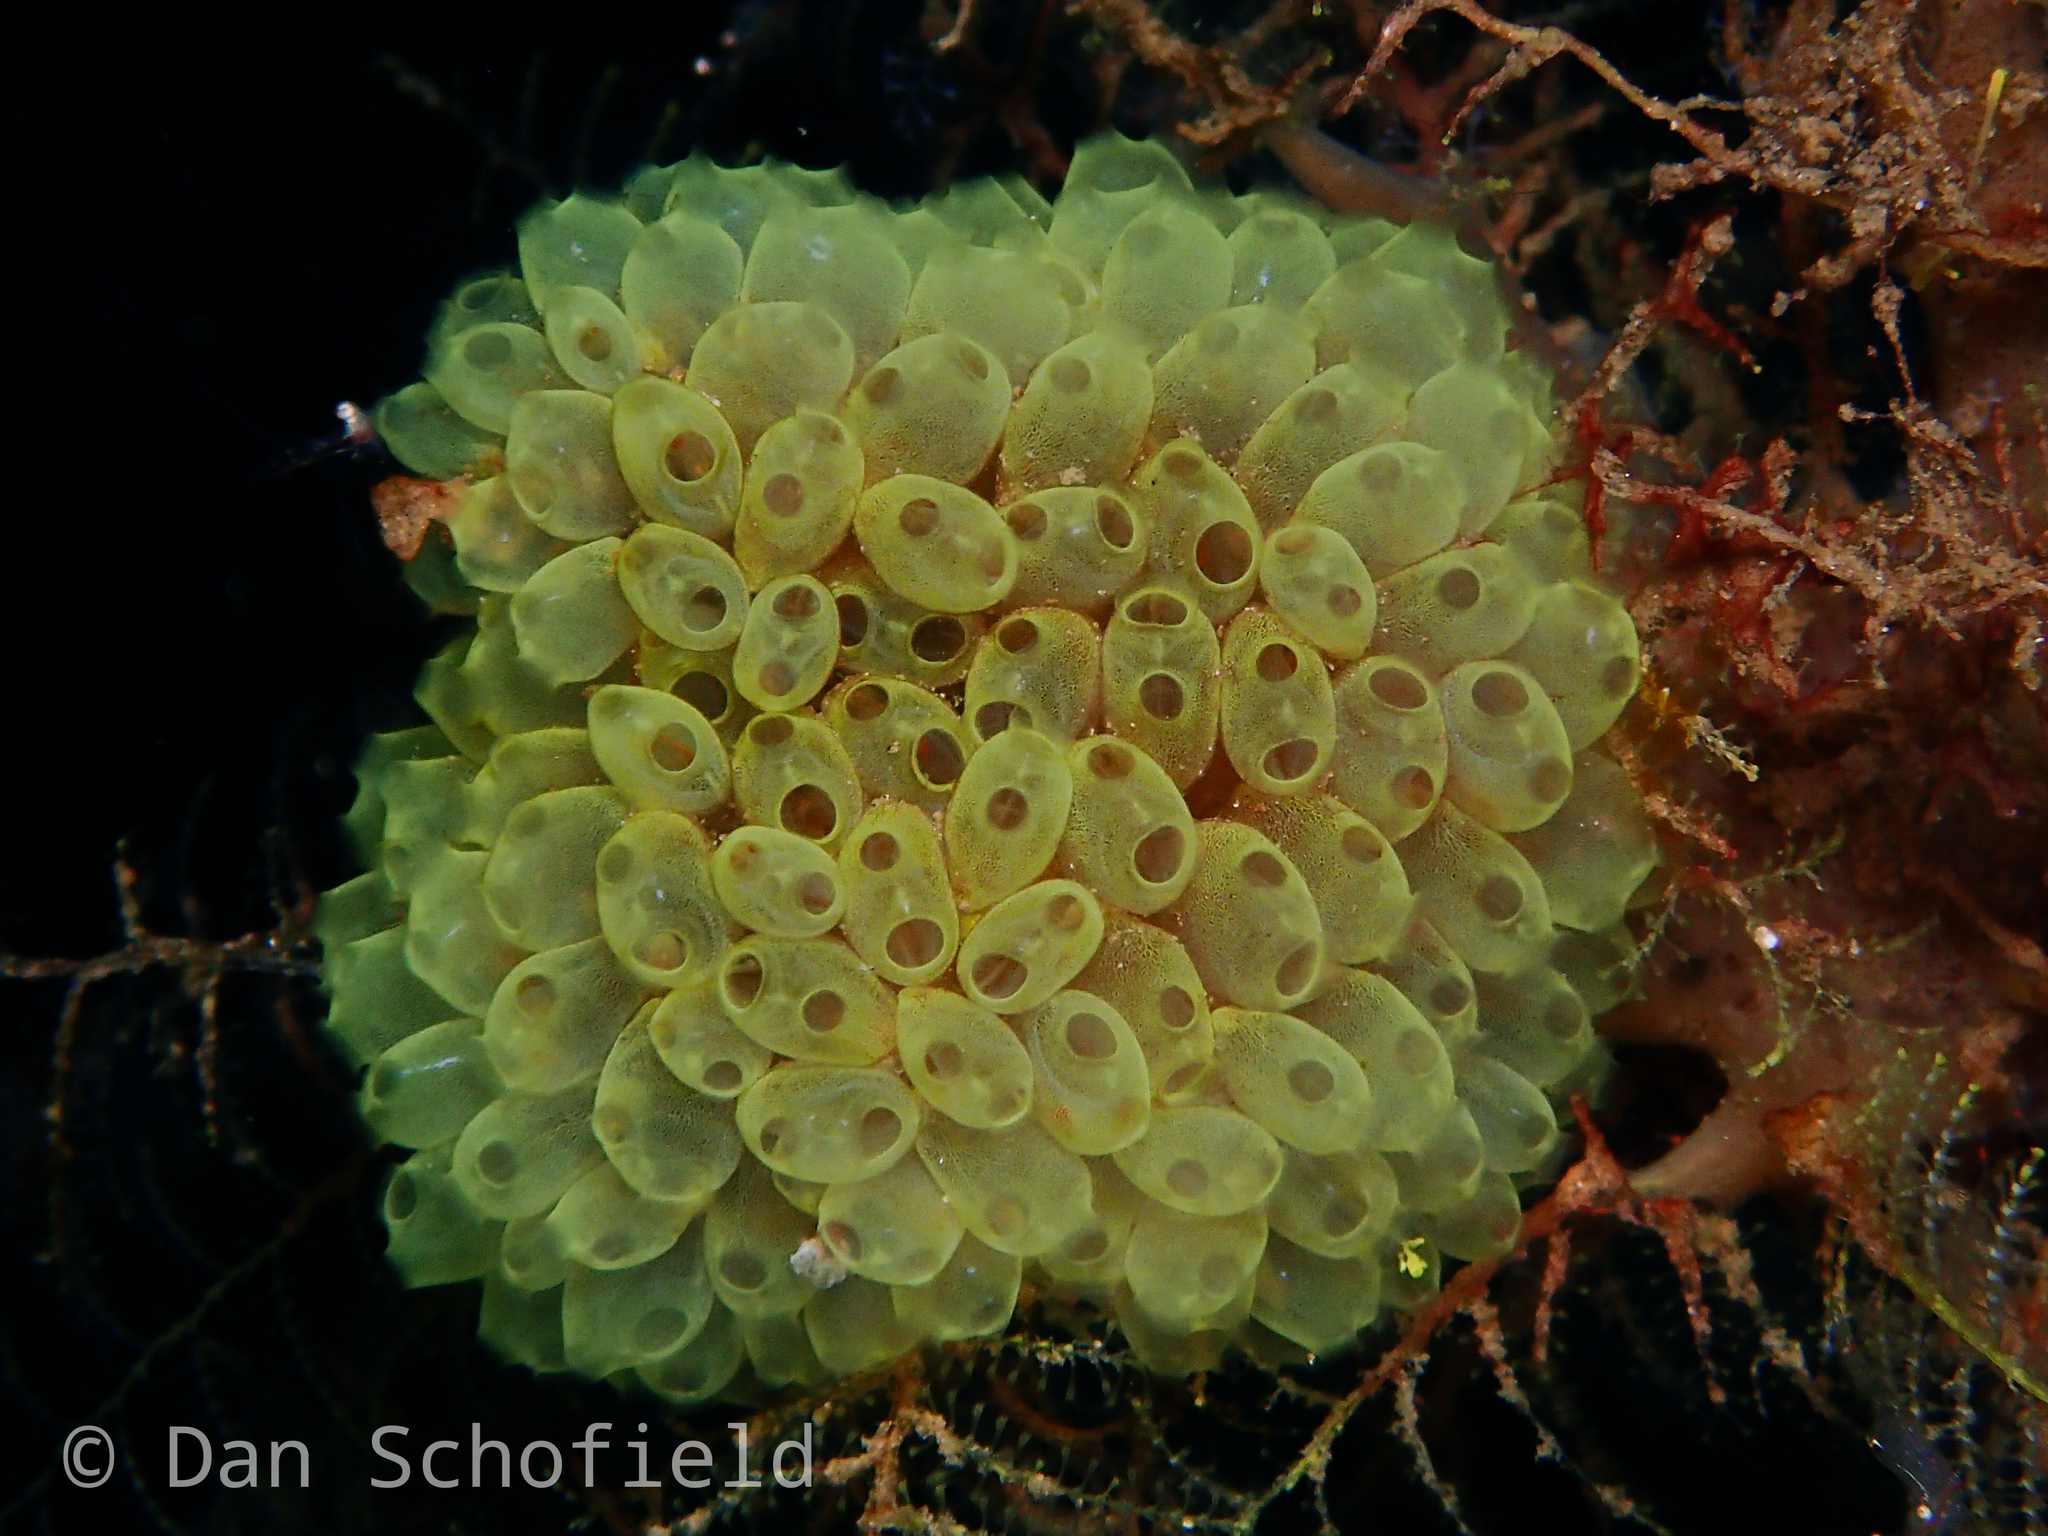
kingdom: Animalia
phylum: Chordata
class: Ascidiacea
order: Phlebobranchia
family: Perophoridae
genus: Perophora
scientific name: Perophora modificata
